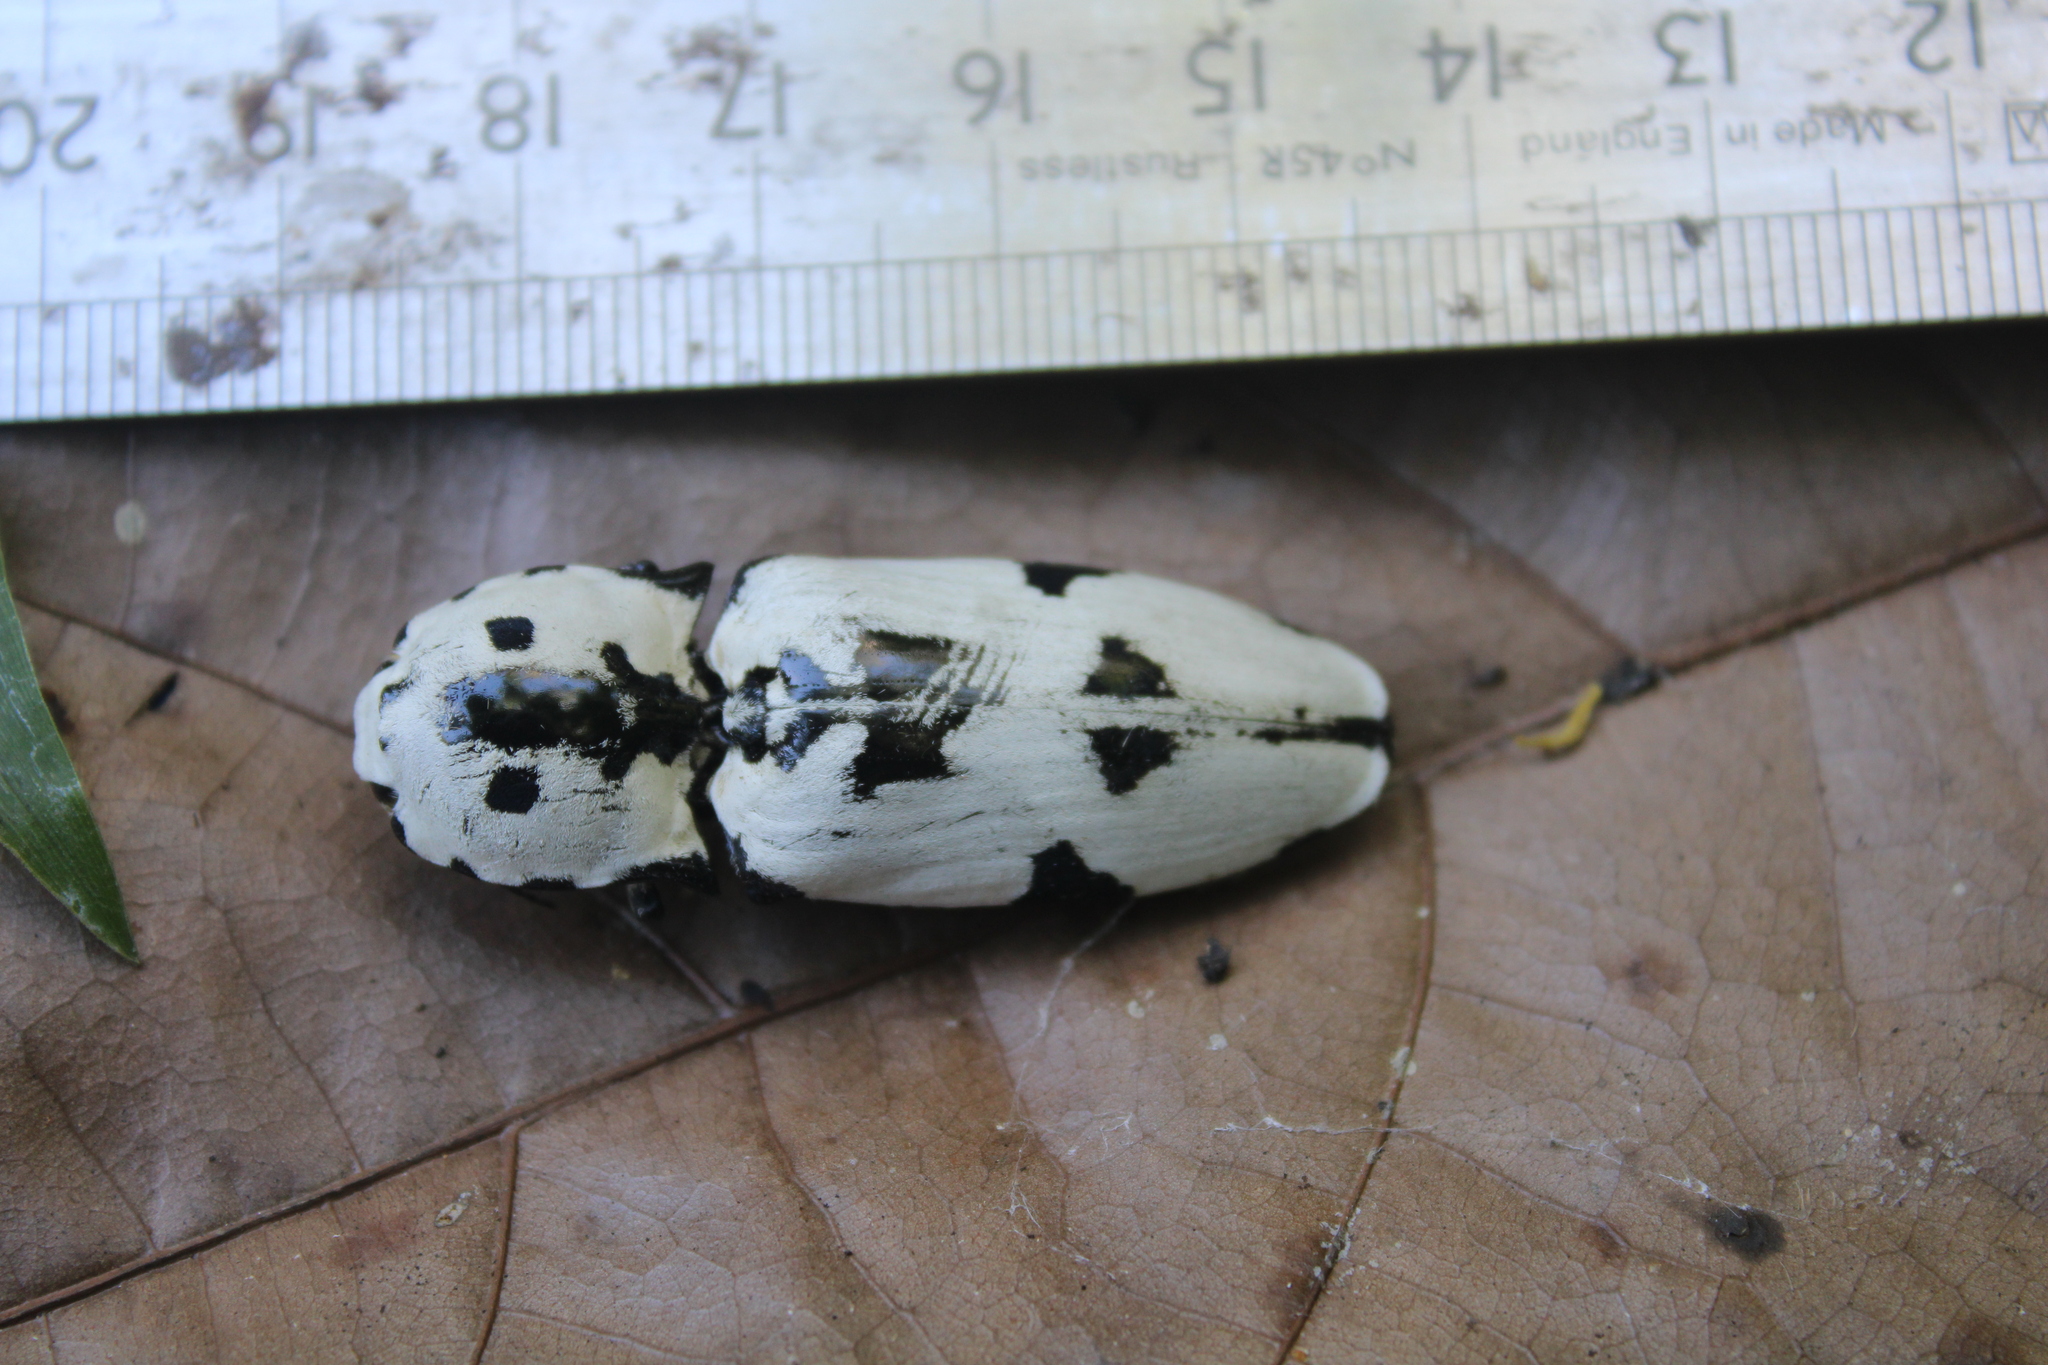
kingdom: Animalia
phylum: Arthropoda
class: Insecta
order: Coleoptera
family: Elateridae
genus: Calais
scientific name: Calais
